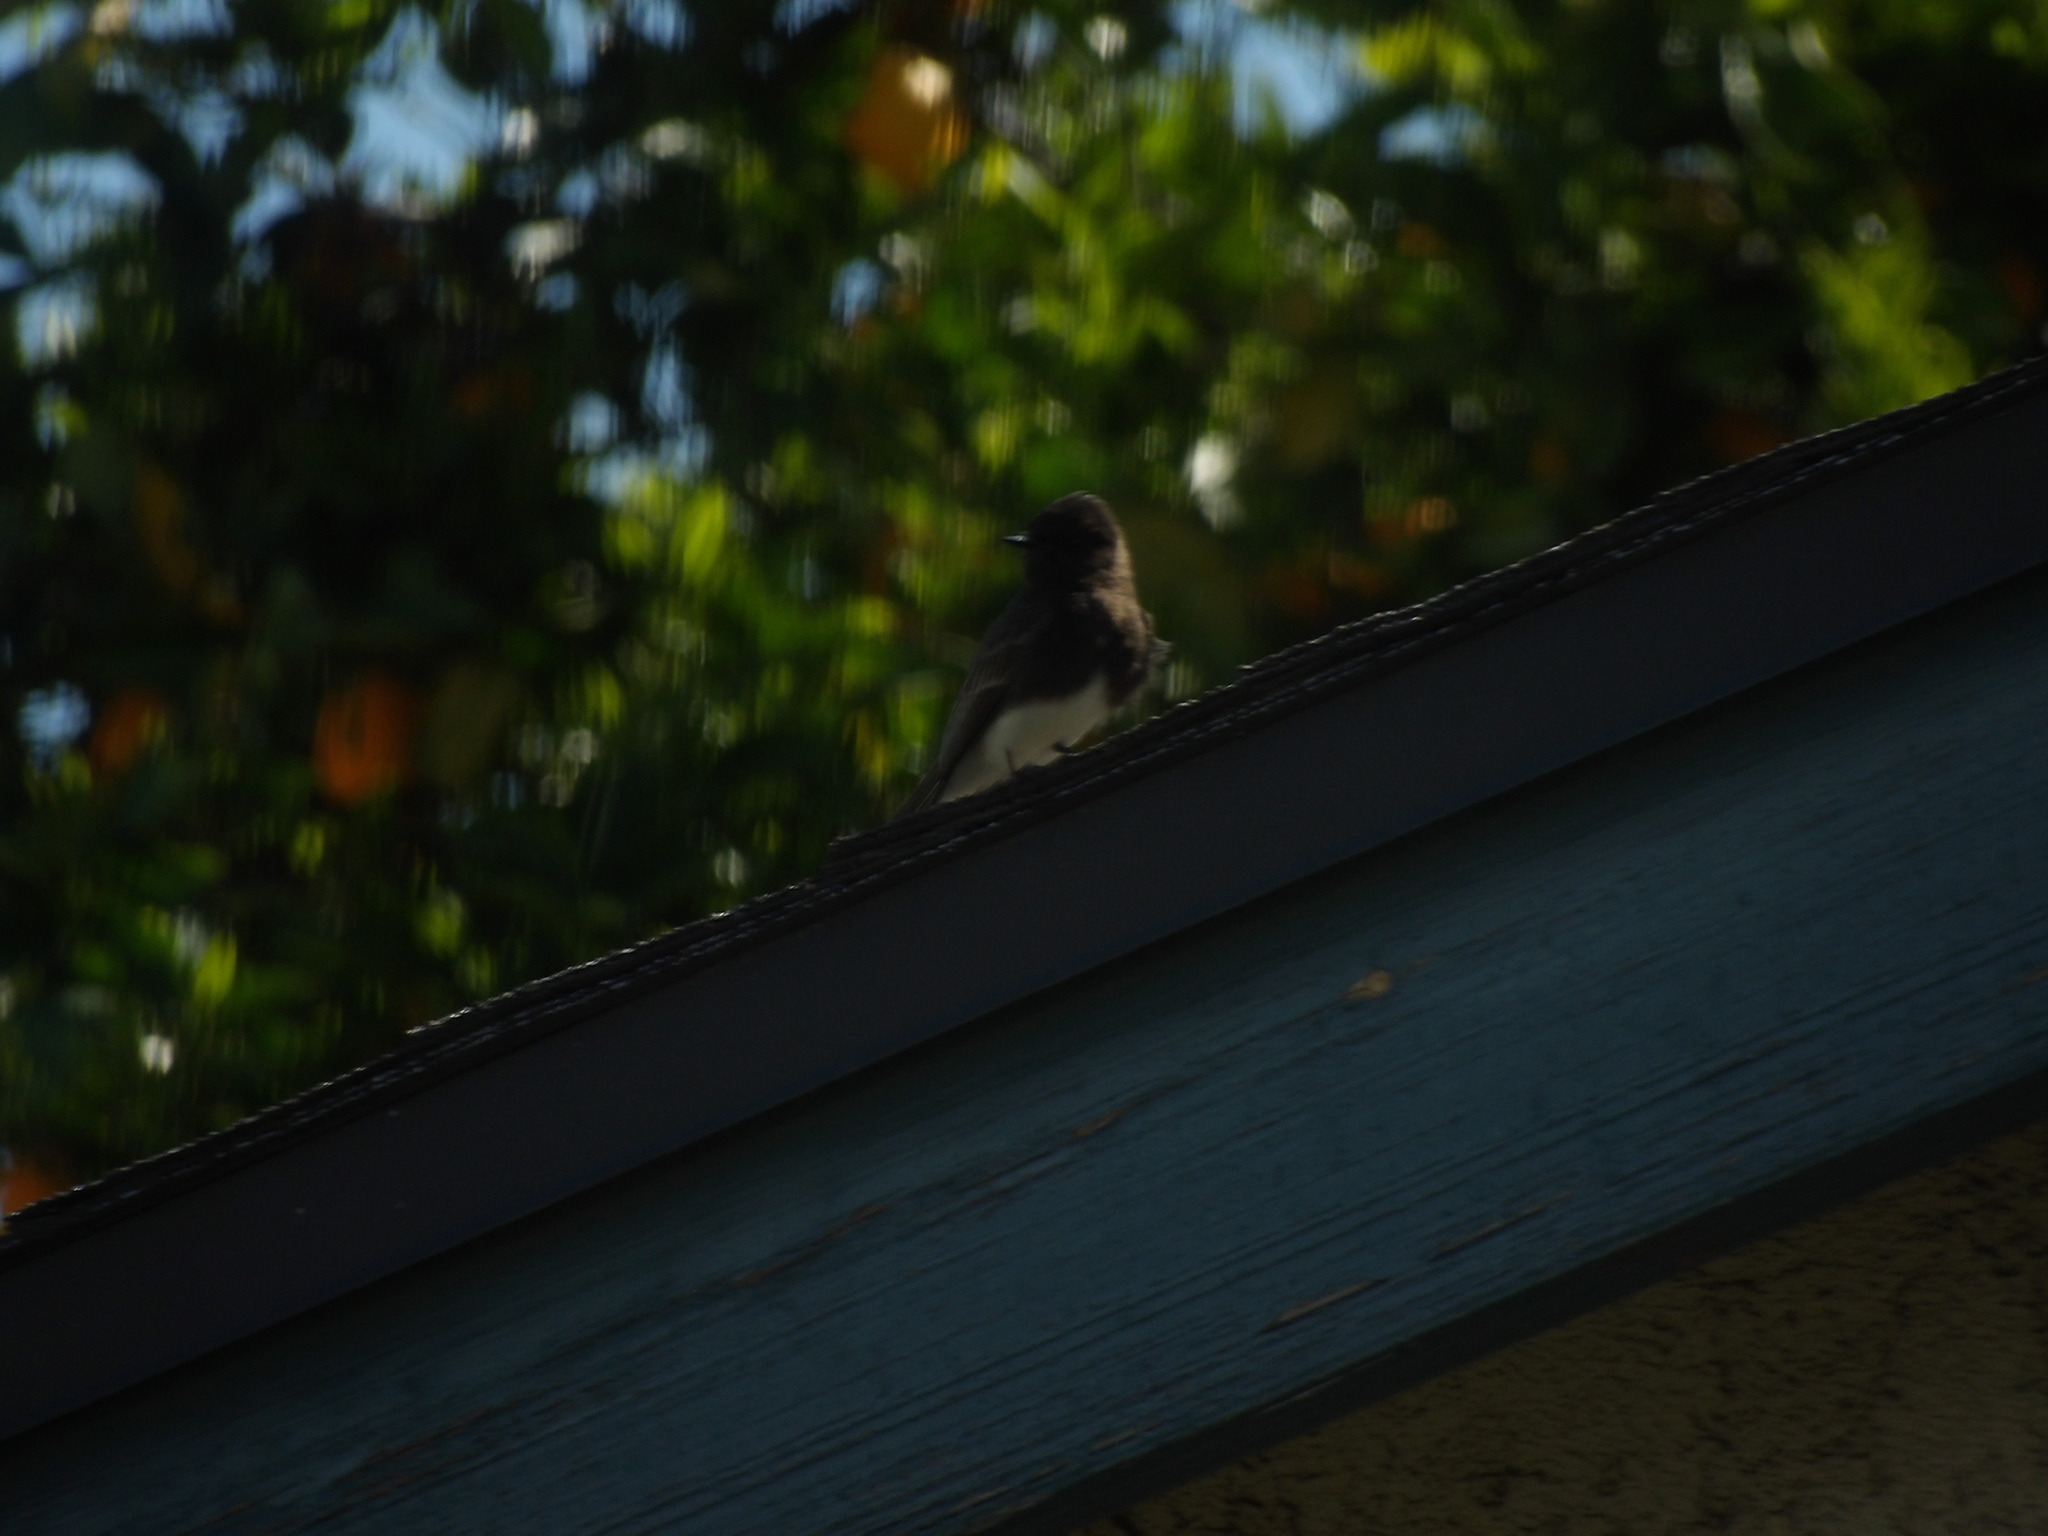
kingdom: Animalia
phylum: Chordata
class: Aves
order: Passeriformes
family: Tyrannidae
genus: Sayornis
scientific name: Sayornis nigricans
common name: Black phoebe
